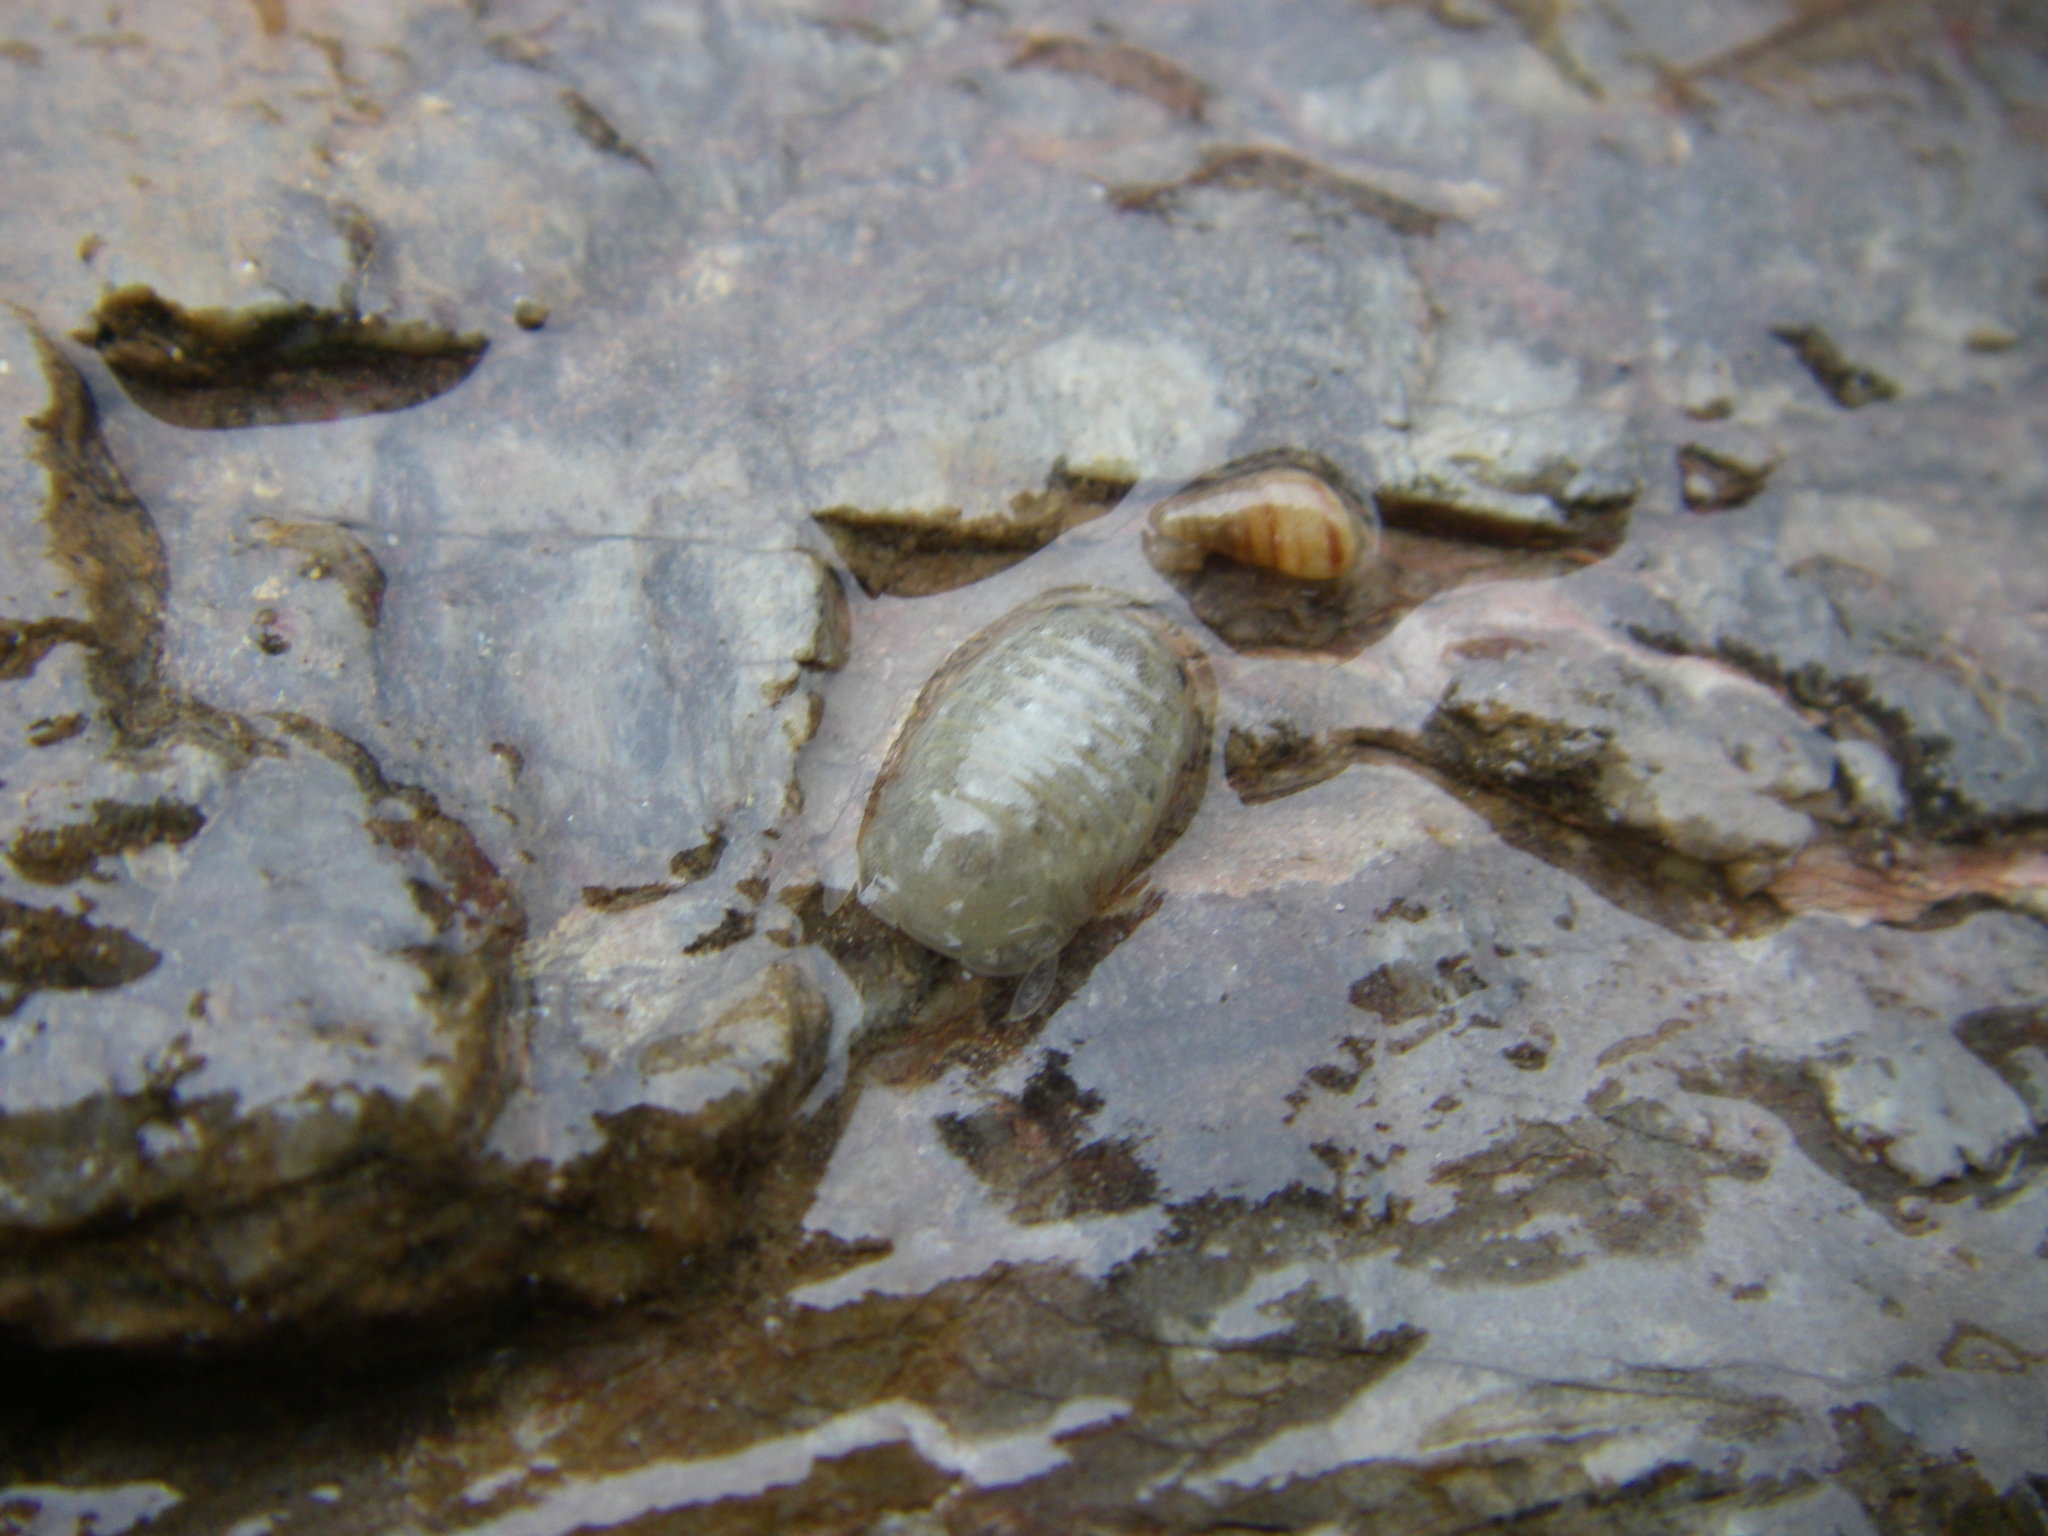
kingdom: Animalia
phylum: Arthropoda
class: Malacostraca
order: Isopoda
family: Sphaeromatidae
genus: Sphaeroma
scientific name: Sphaeroma serratum
